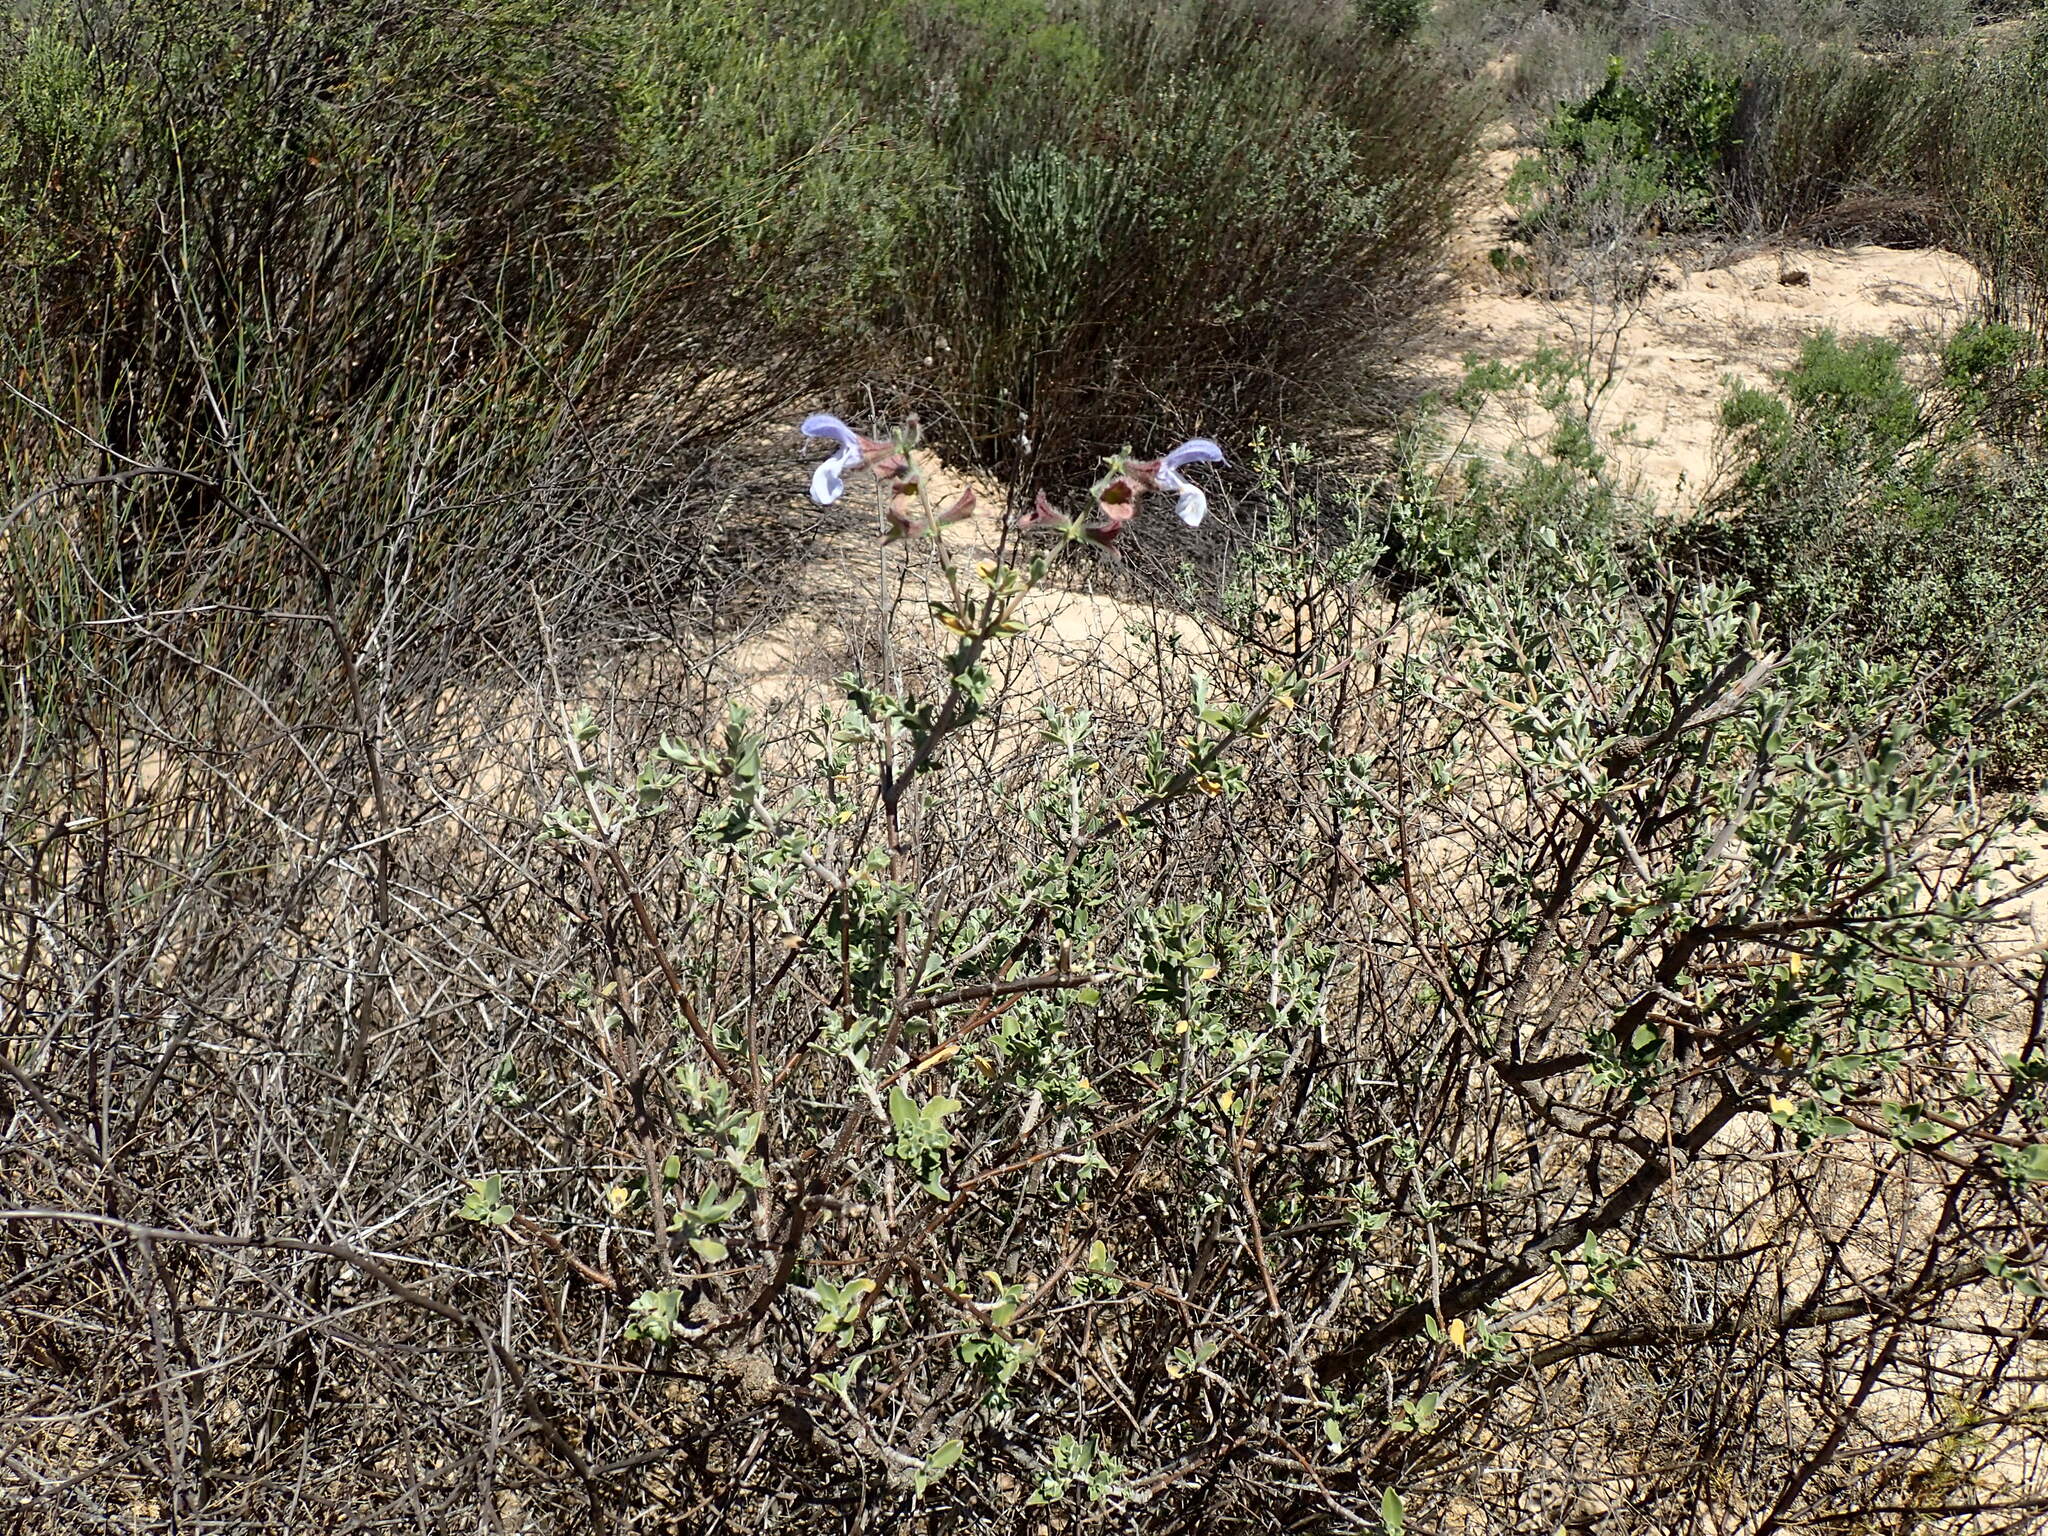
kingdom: Plantae
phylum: Tracheophyta
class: Magnoliopsida
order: Lamiales
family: Lamiaceae
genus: Salvia
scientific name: Salvia africana
